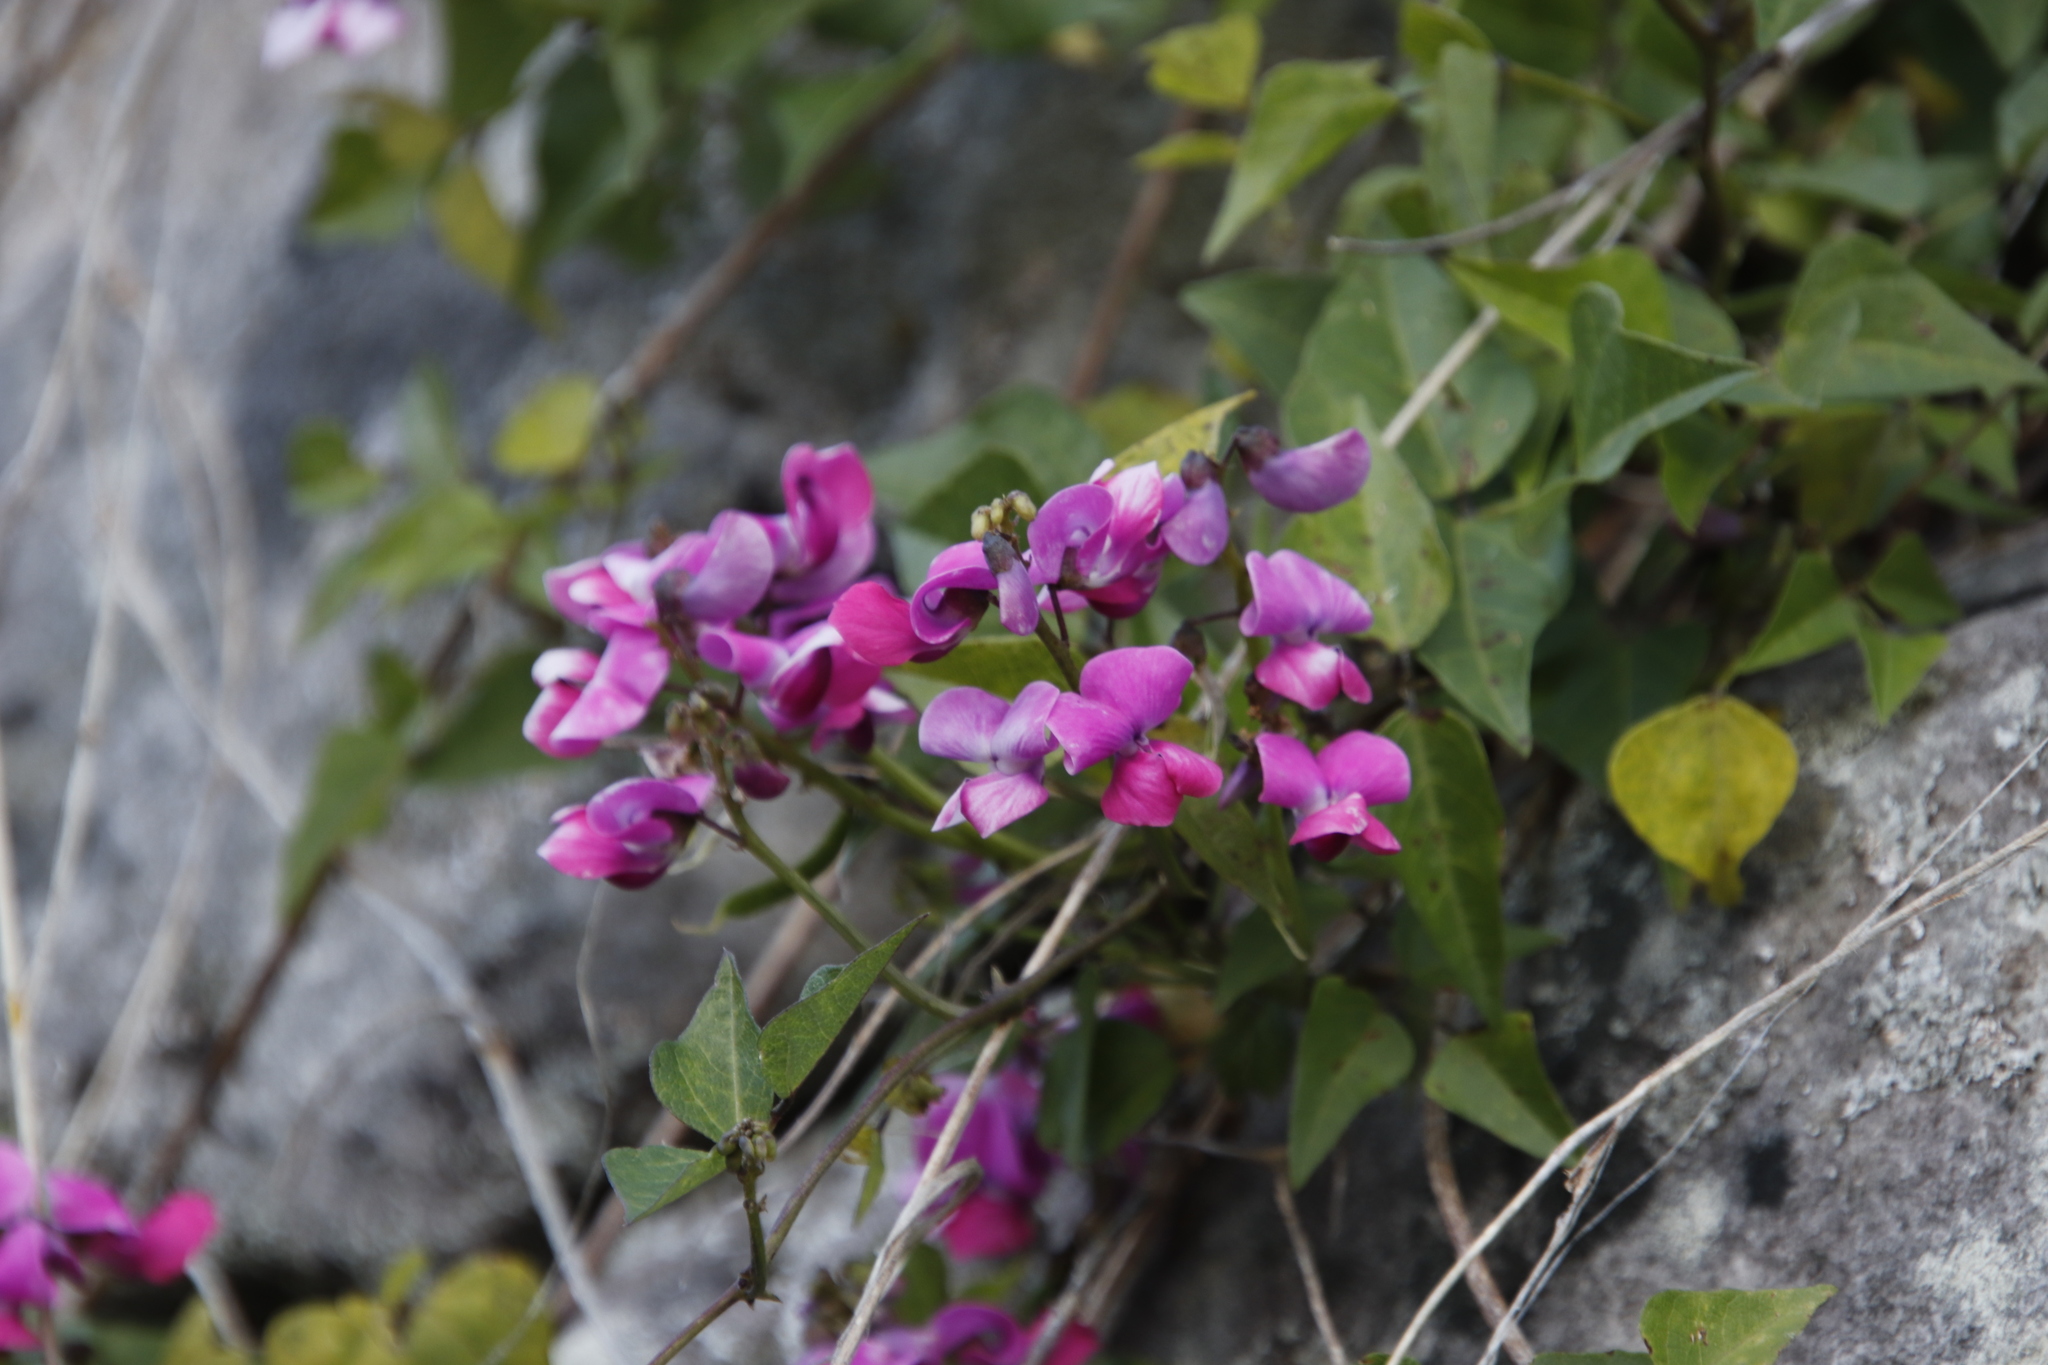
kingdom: Plantae
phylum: Tracheophyta
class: Magnoliopsida
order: Fabales
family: Fabaceae
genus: Dipogon
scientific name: Dipogon lignosus
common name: Okie bean
